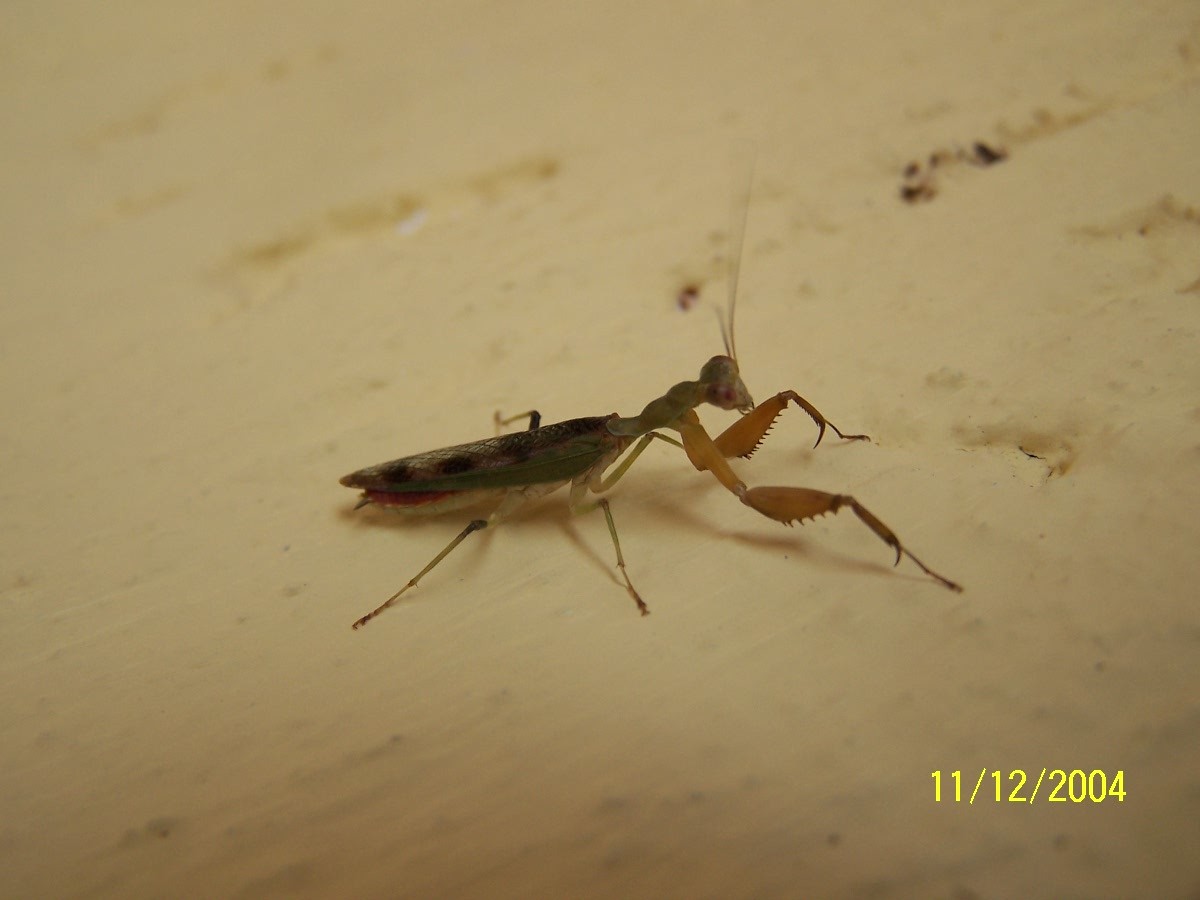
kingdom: Animalia
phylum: Arthropoda
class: Insecta
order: Mantodea
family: Acanthopidae
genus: Acontista
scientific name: Acontista cordillerae
